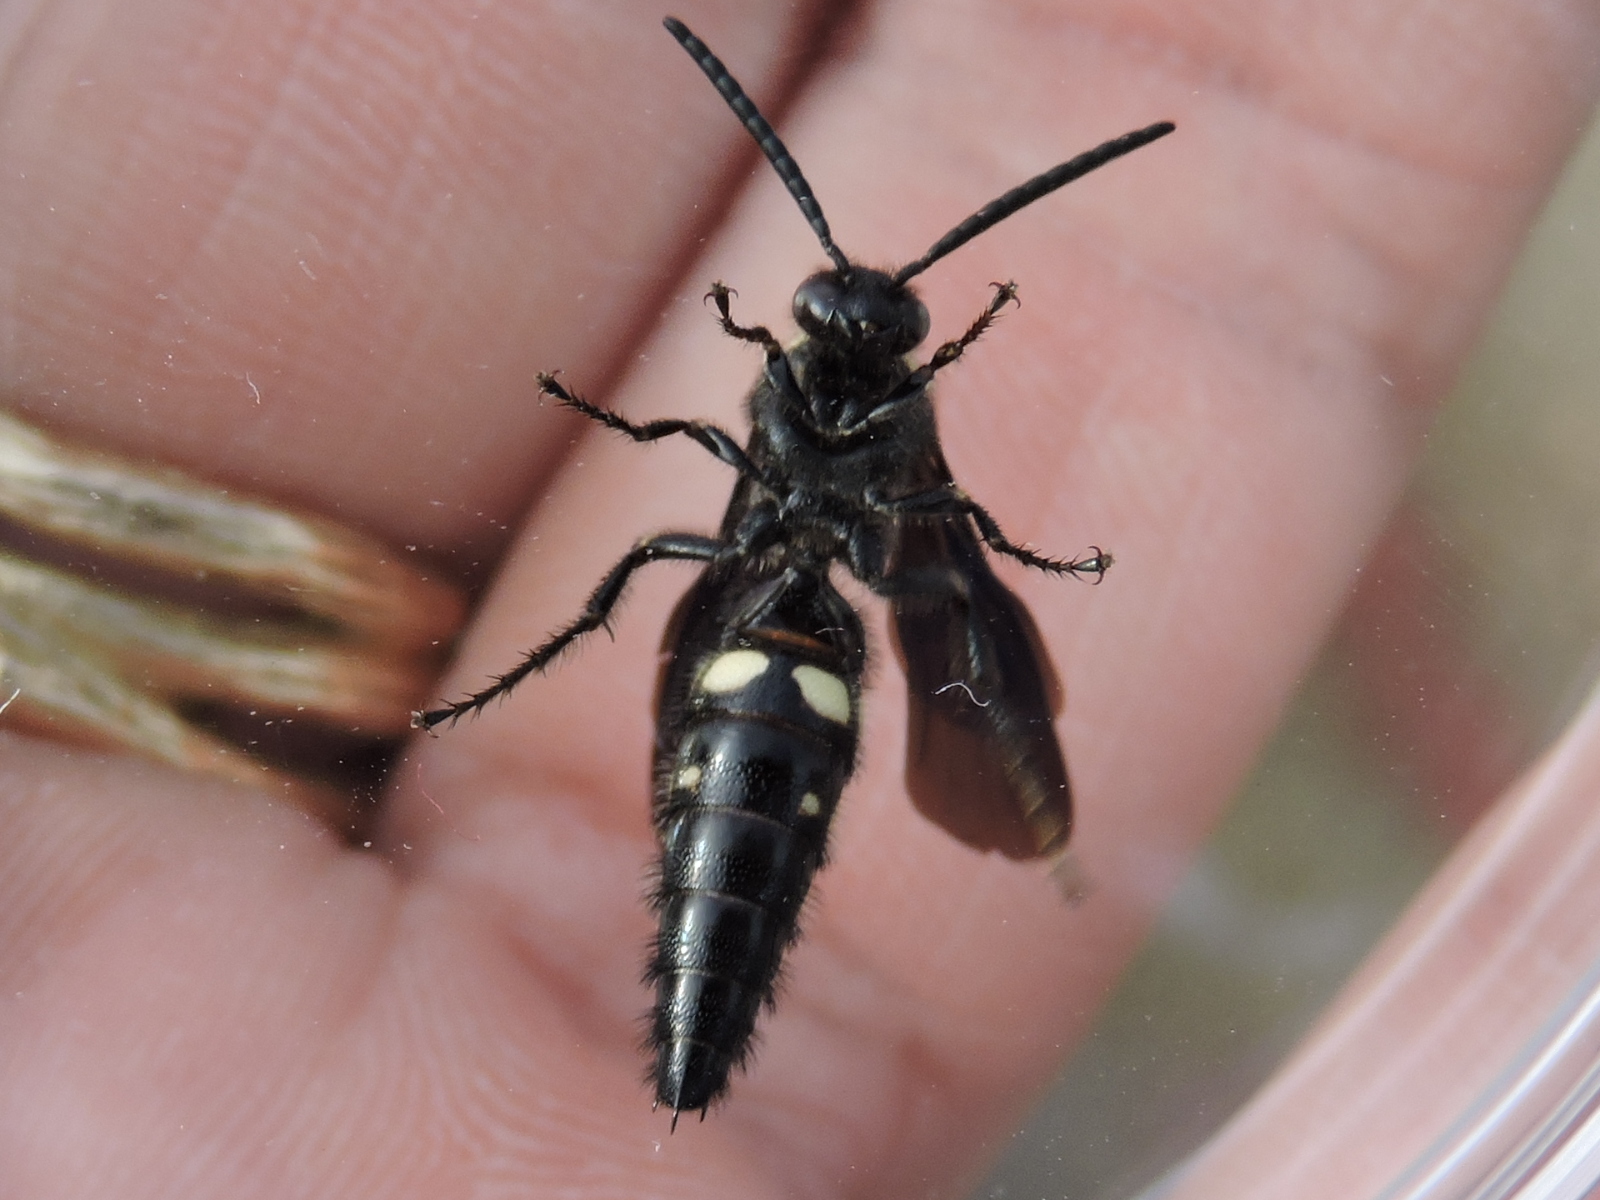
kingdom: Animalia
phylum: Arthropoda
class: Insecta
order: Hymenoptera
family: Scoliidae
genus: Scolia
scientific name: Scolia bicincta
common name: Double-banded scoliid wasp
